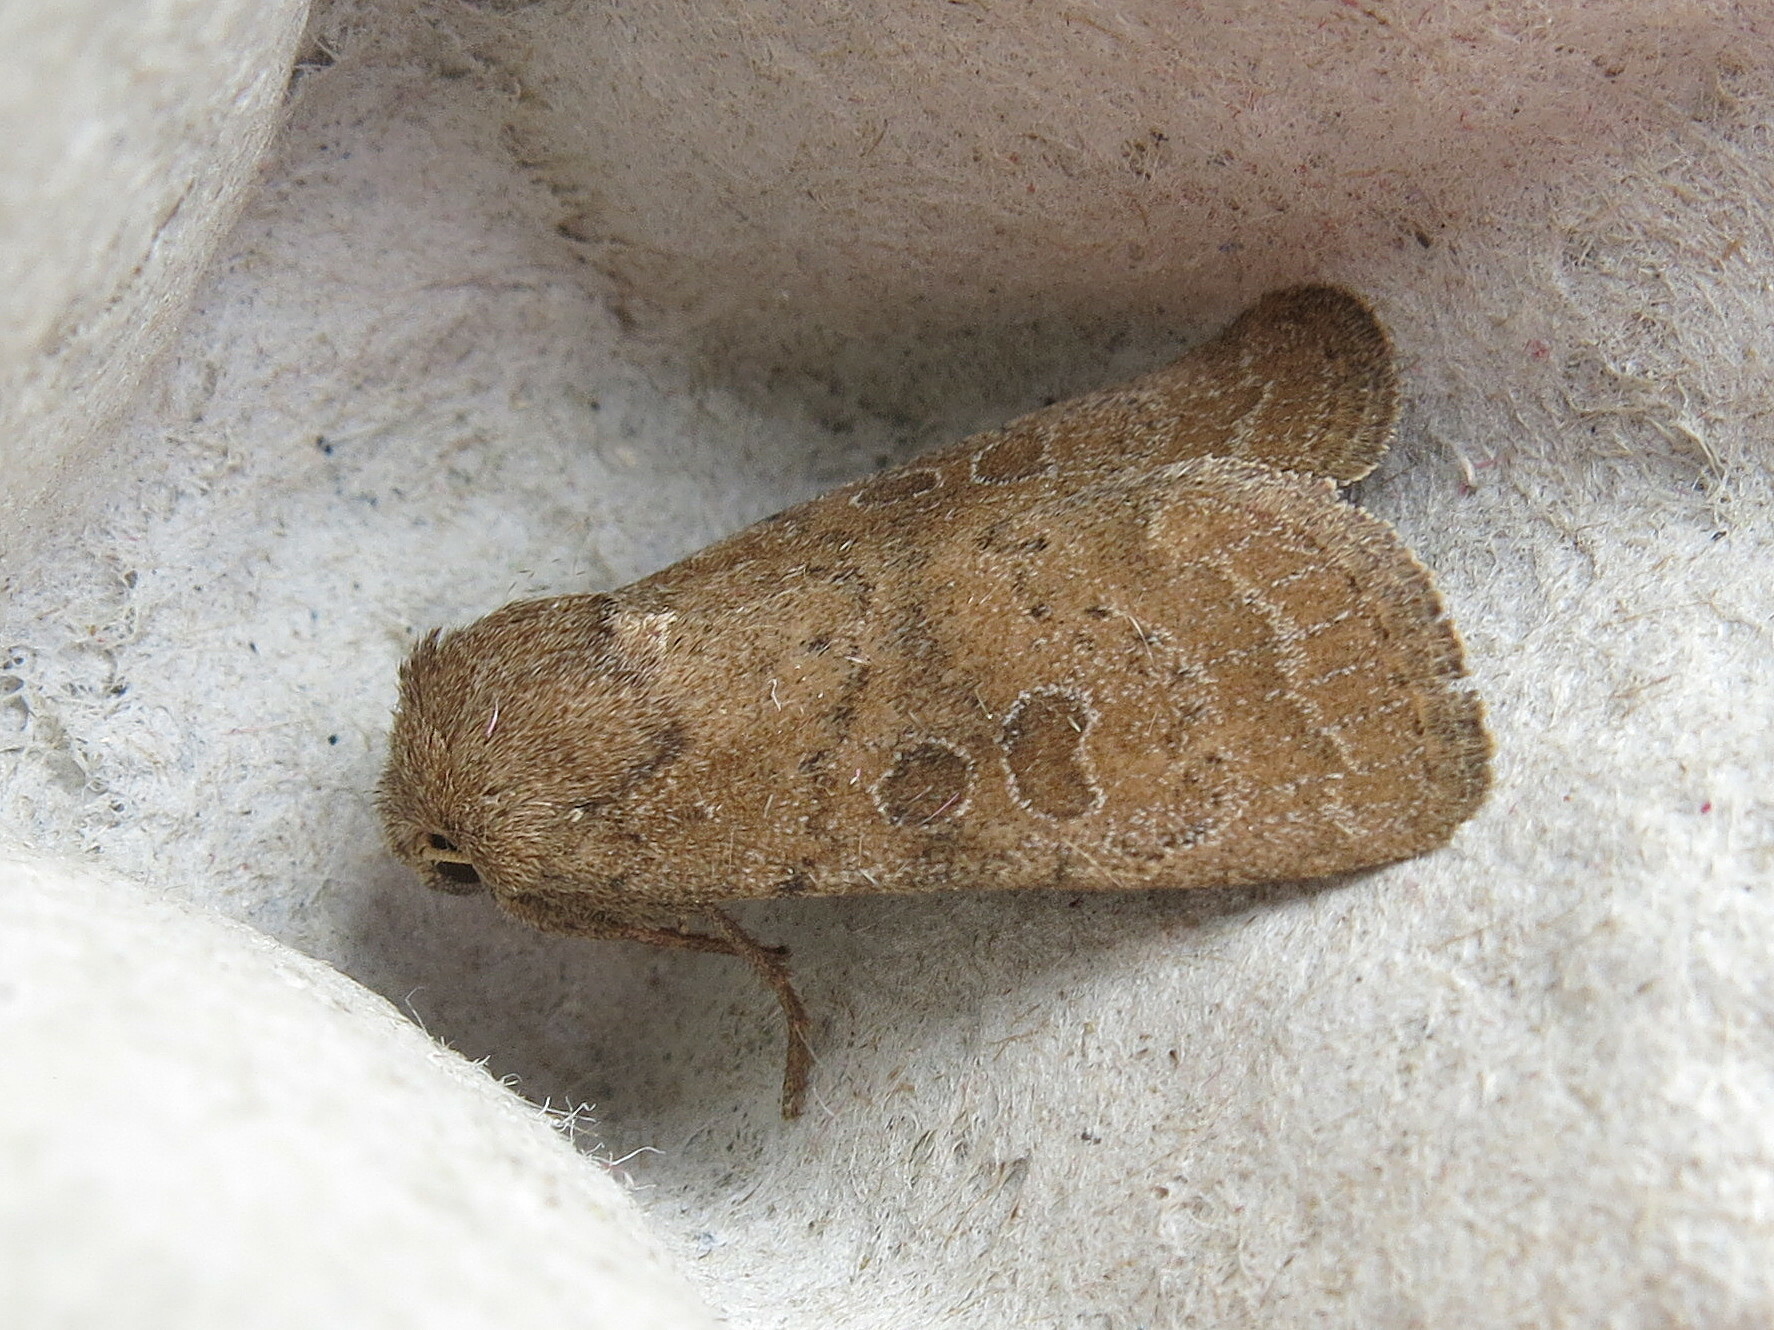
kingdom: Animalia
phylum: Arthropoda
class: Insecta
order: Lepidoptera
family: Noctuidae
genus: Hoplodrina
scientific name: Hoplodrina octogenaria
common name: Uncertain
